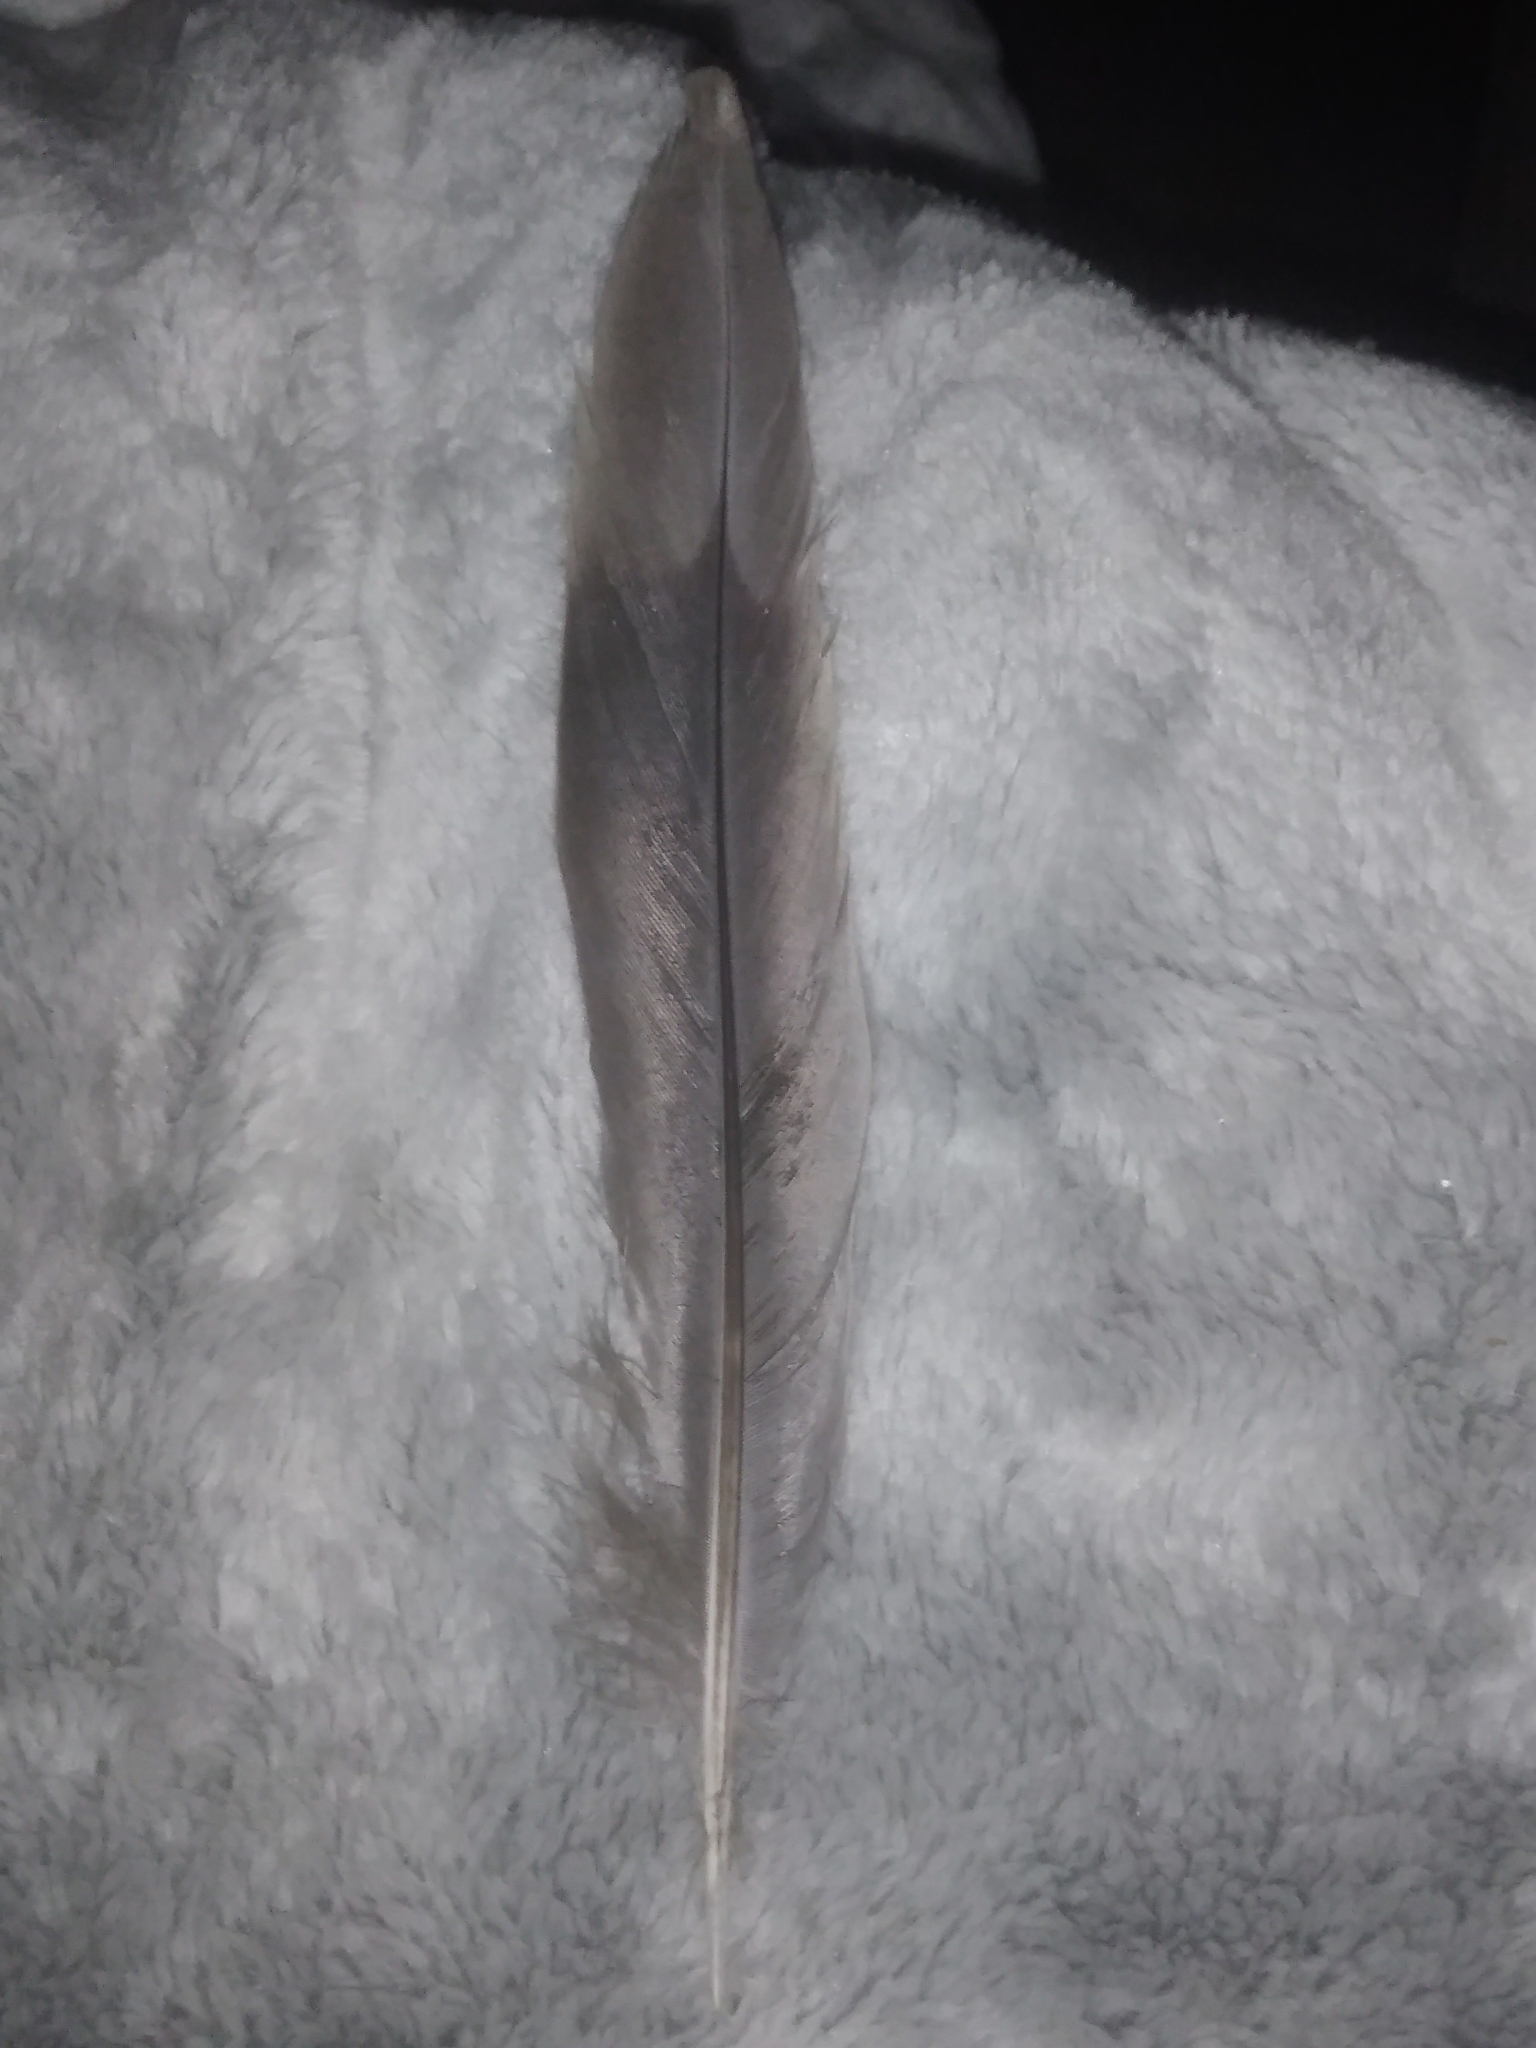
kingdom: Animalia
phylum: Chordata
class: Aves
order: Columbiformes
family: Columbidae
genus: Zenaida
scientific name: Zenaida macroura
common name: Mourning dove
